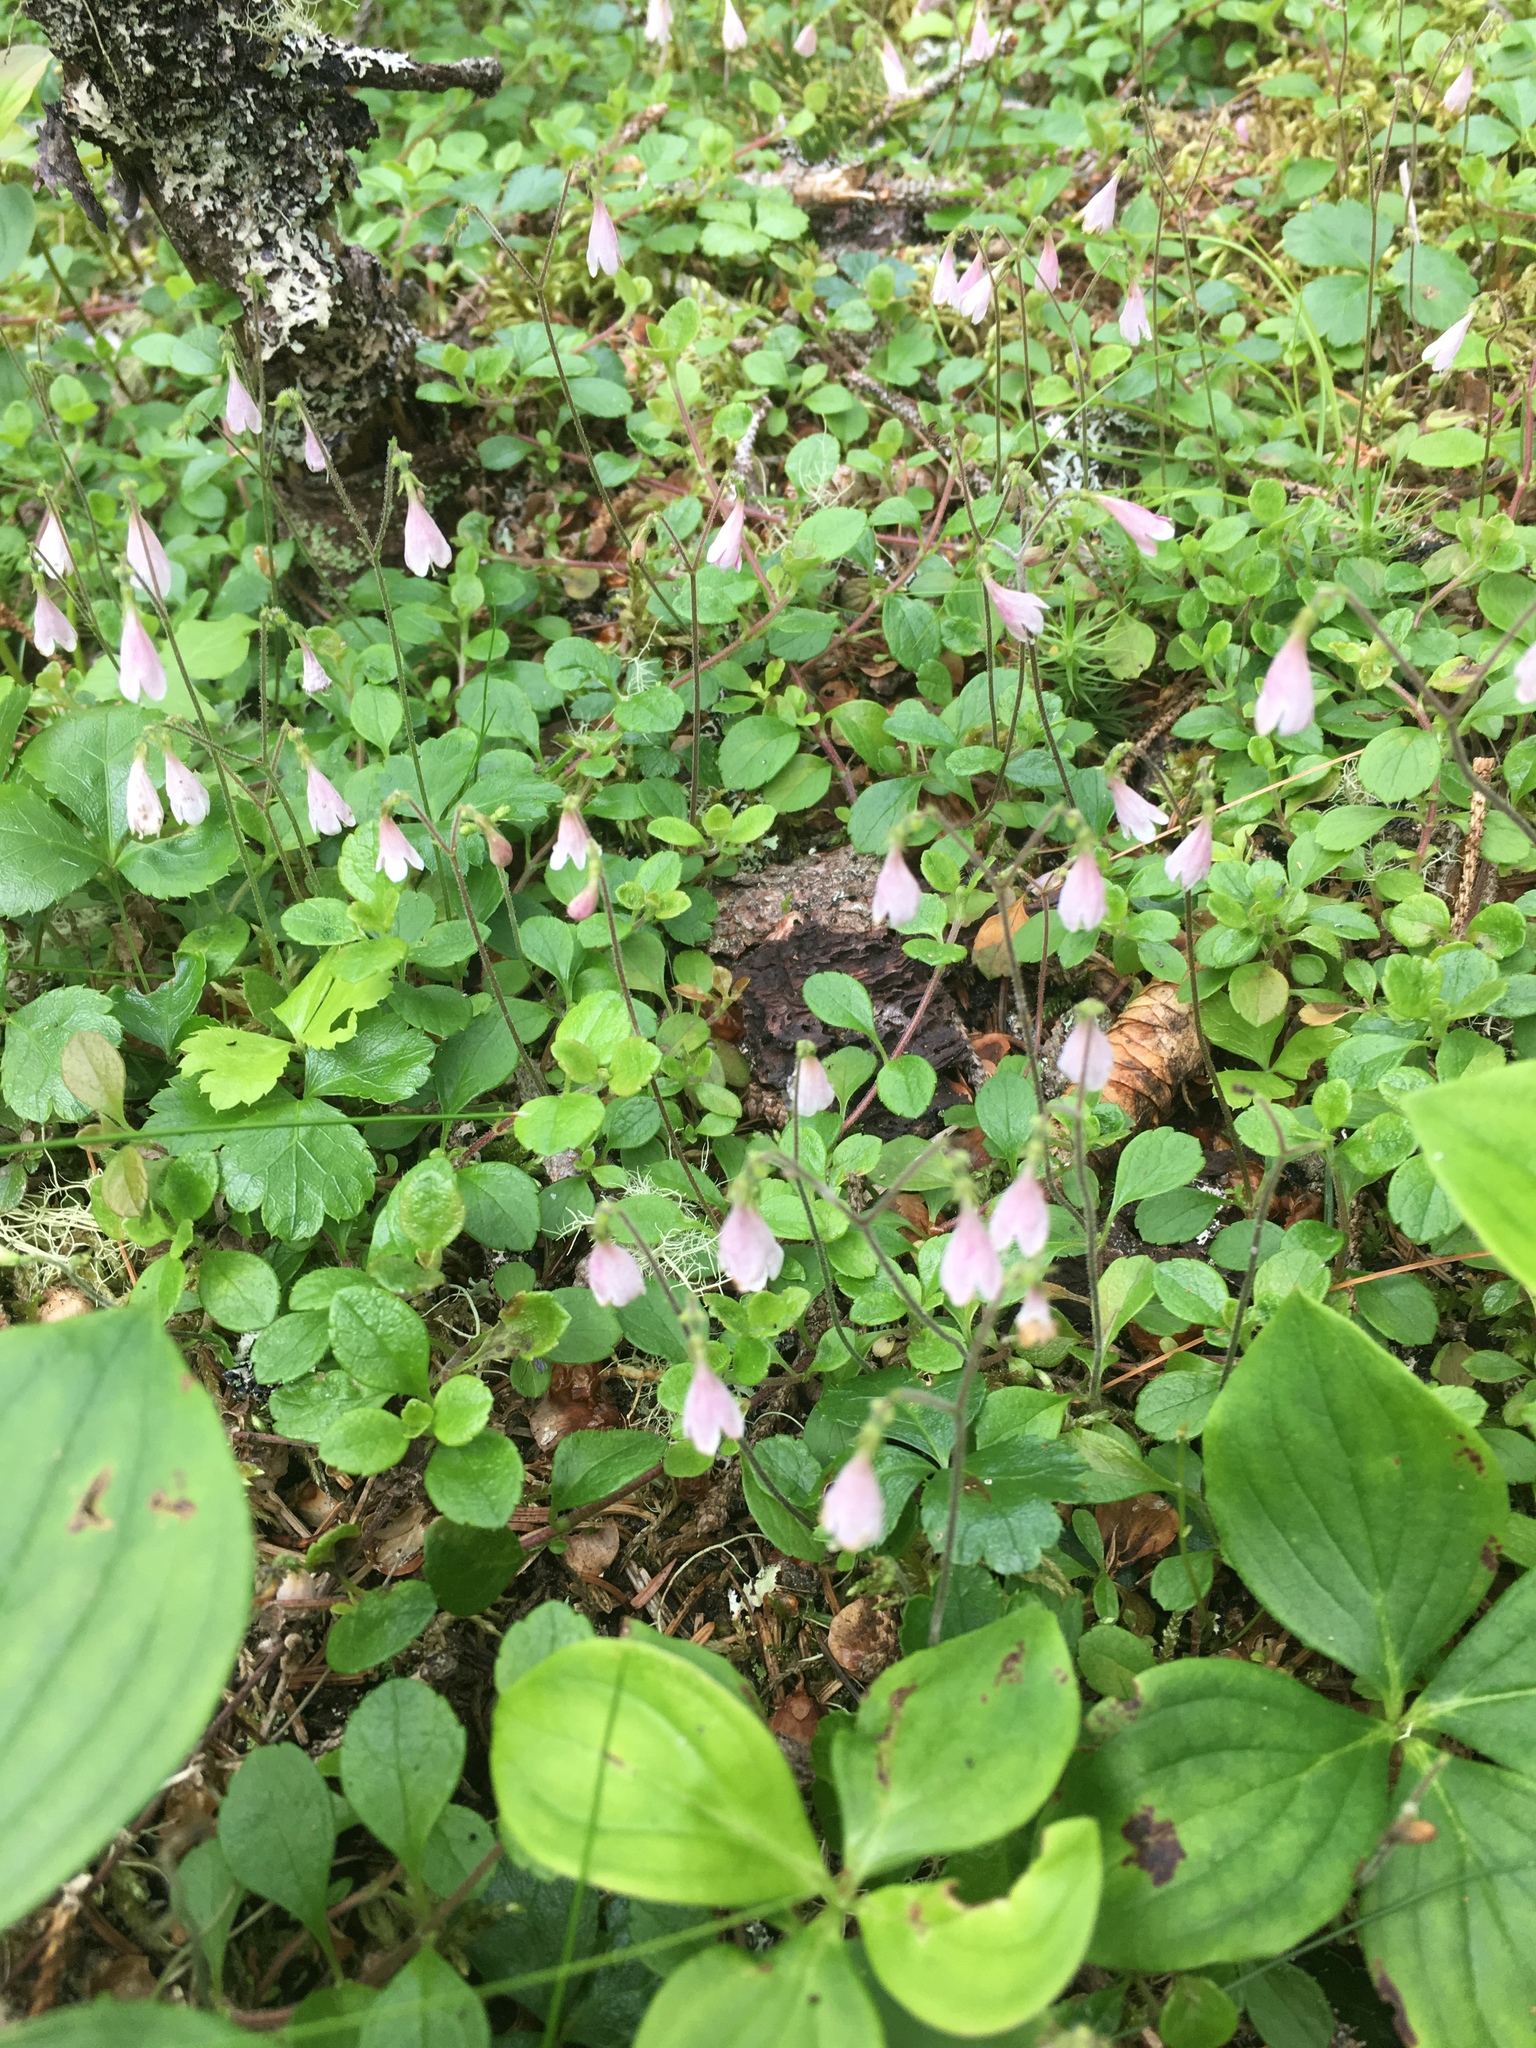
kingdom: Plantae
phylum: Tracheophyta
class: Magnoliopsida
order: Dipsacales
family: Caprifoliaceae
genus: Linnaea
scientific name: Linnaea borealis
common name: Twinflower
